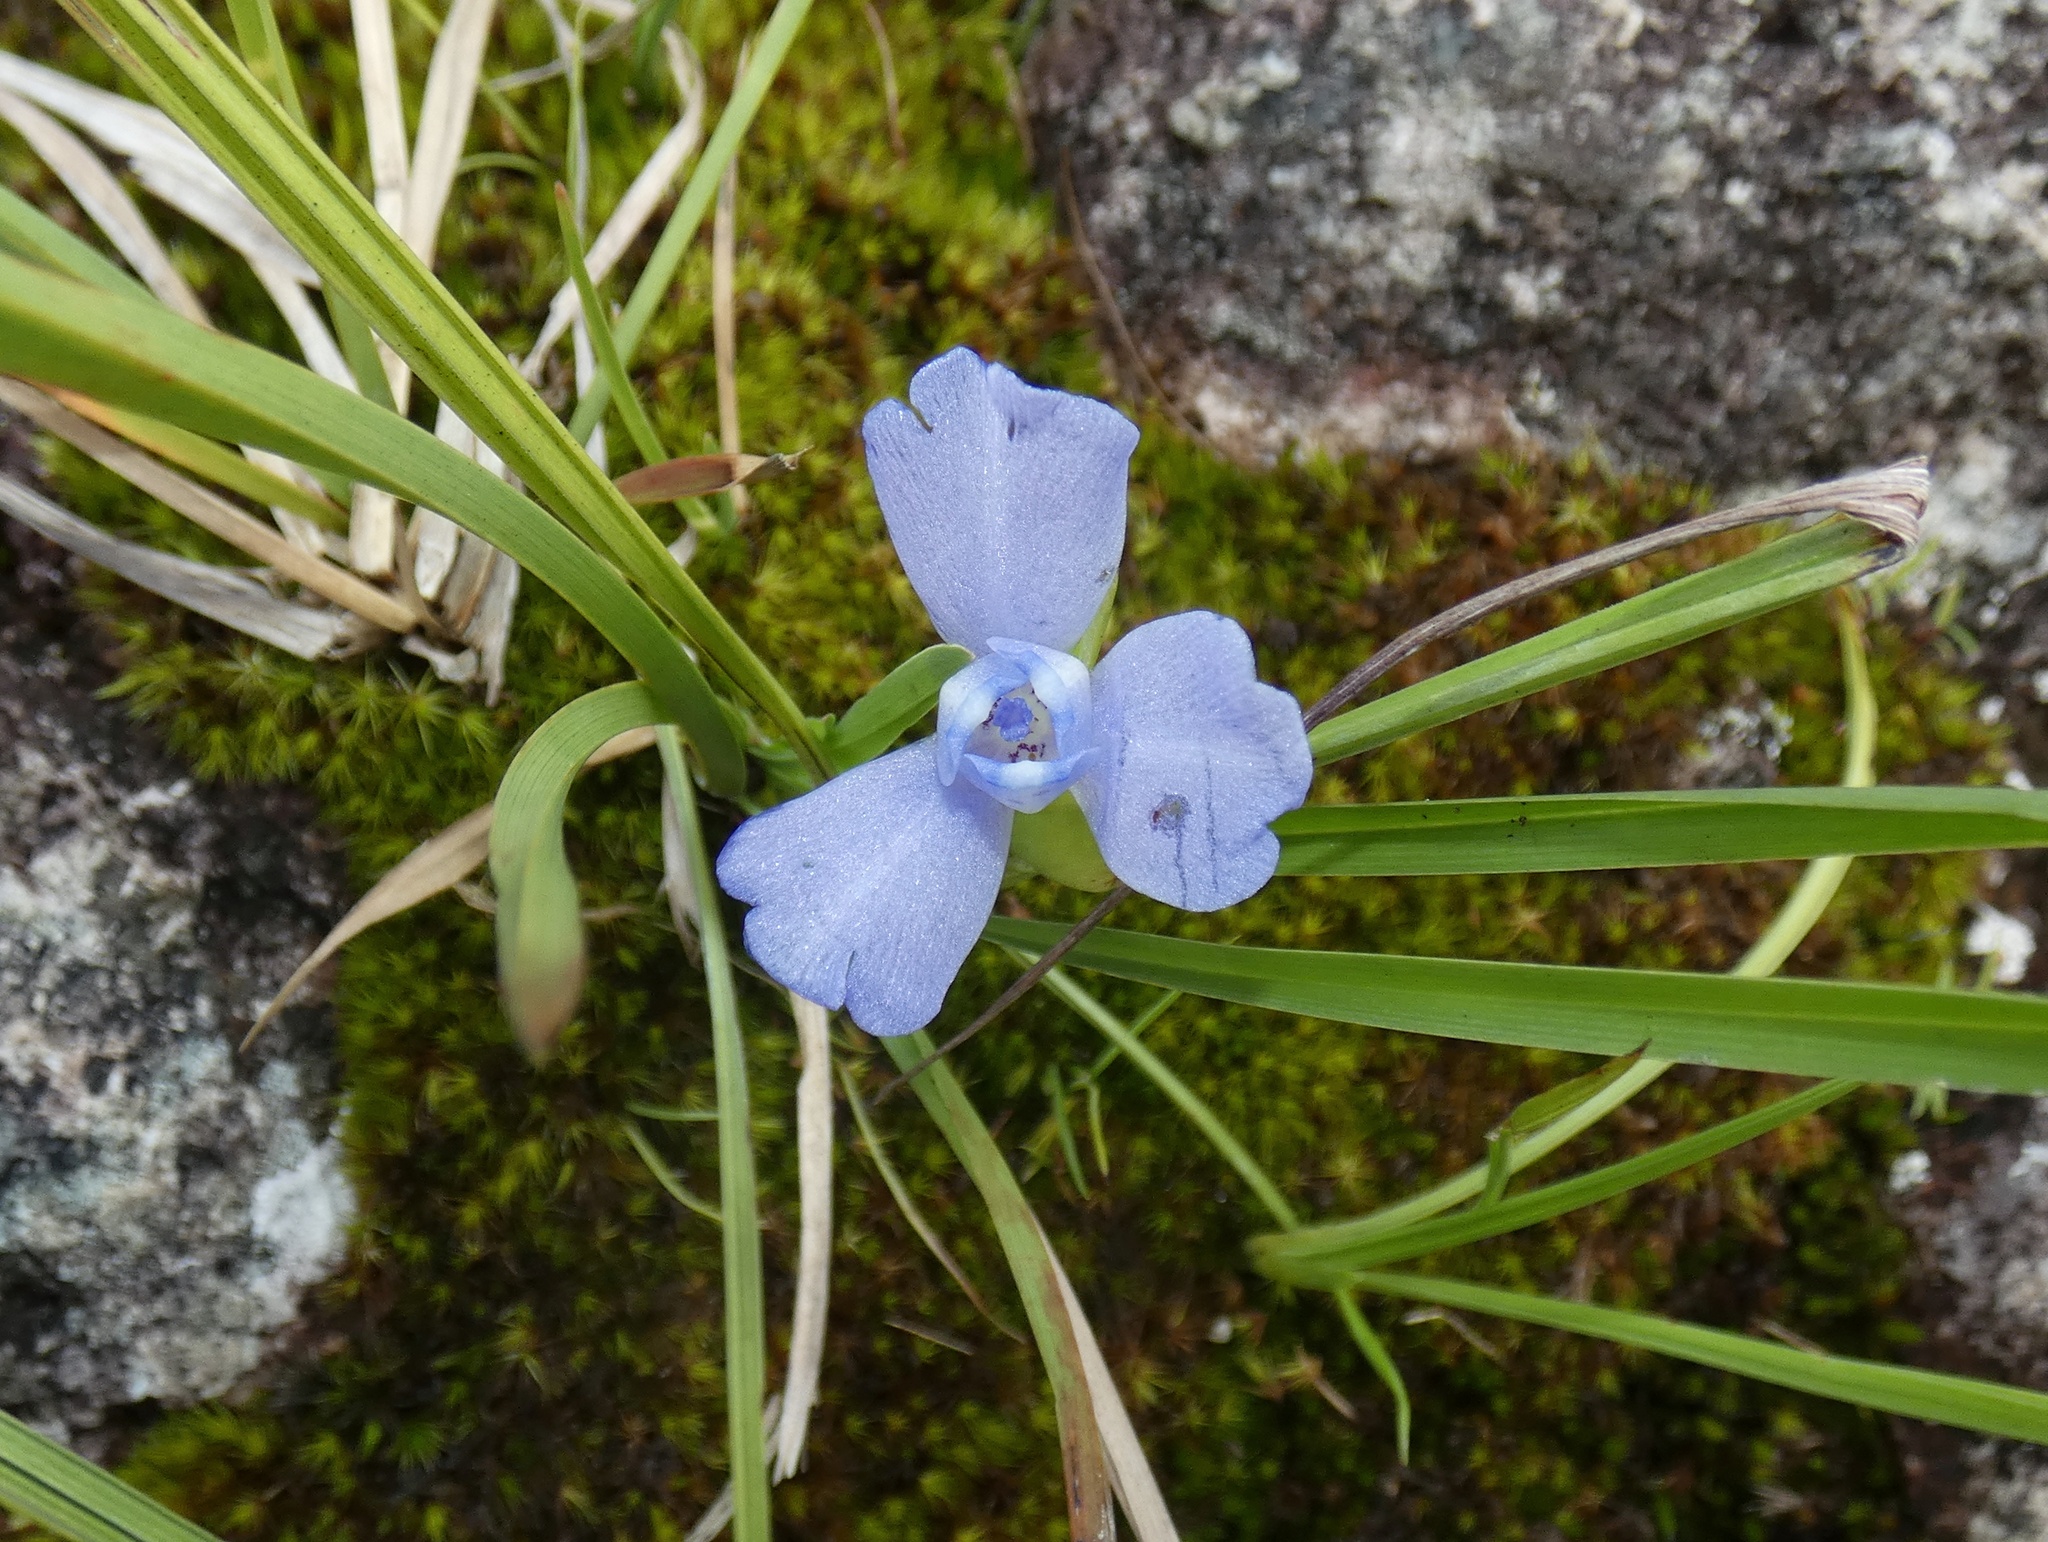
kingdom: Plantae
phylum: Tracheophyta
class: Liliopsida
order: Asparagales
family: Iridaceae
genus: Cipura
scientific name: Cipura paludosa
